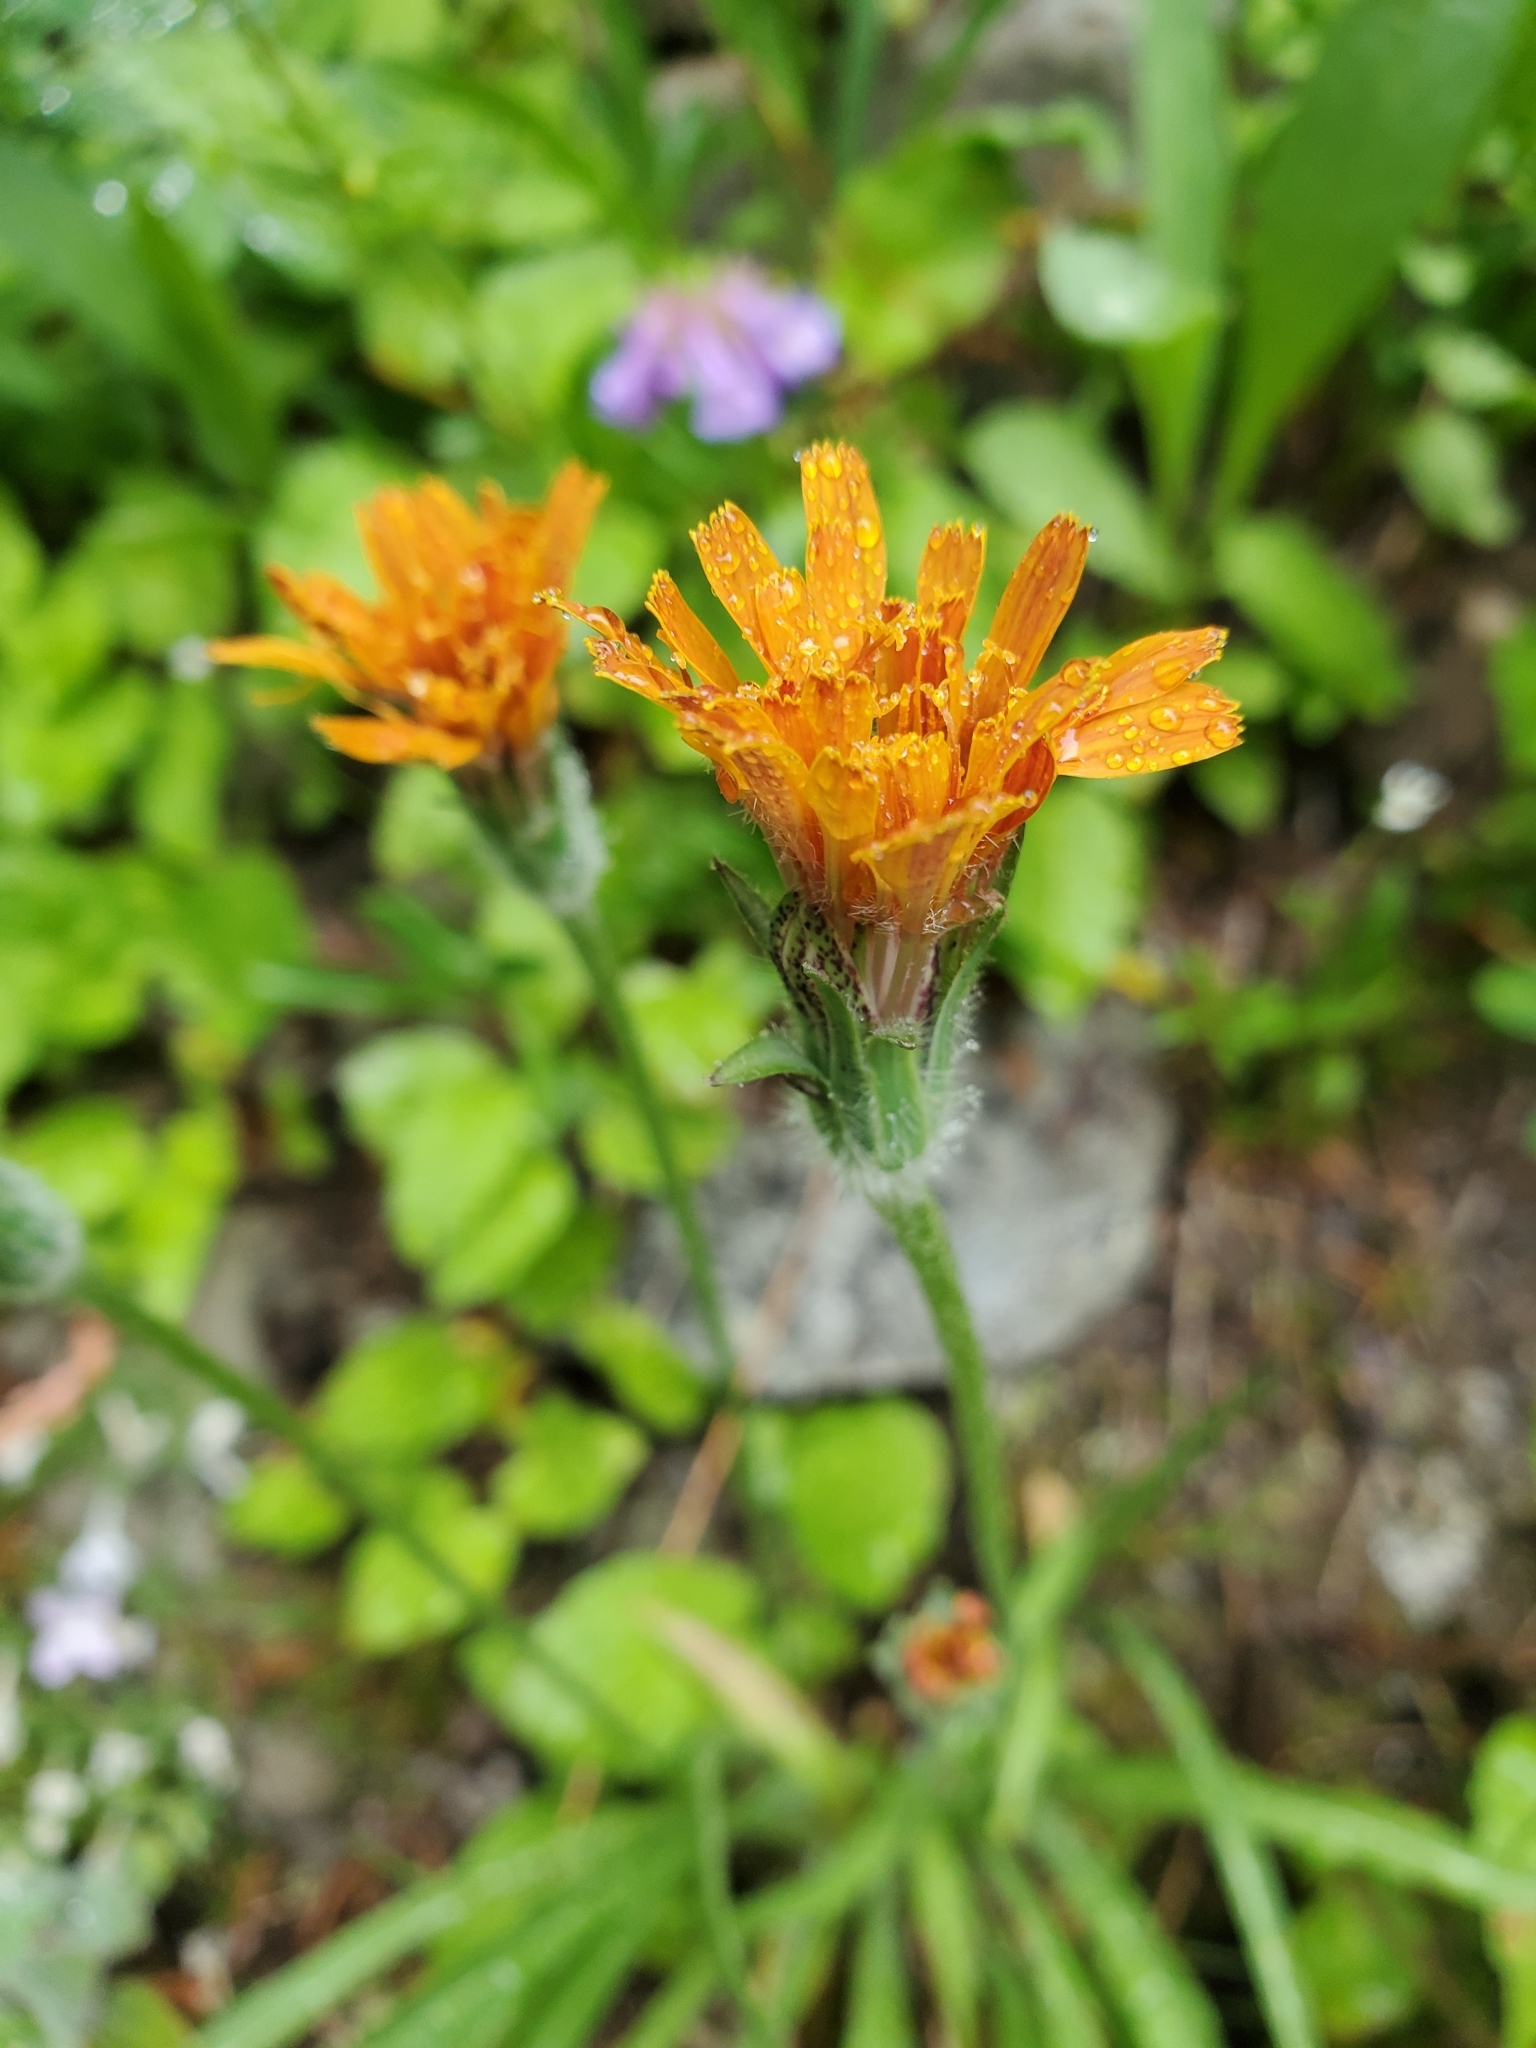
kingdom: Plantae
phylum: Tracheophyta
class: Magnoliopsida
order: Asterales
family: Asteraceae
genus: Agoseris
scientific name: Agoseris aurantiaca
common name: Mountain agoseris
